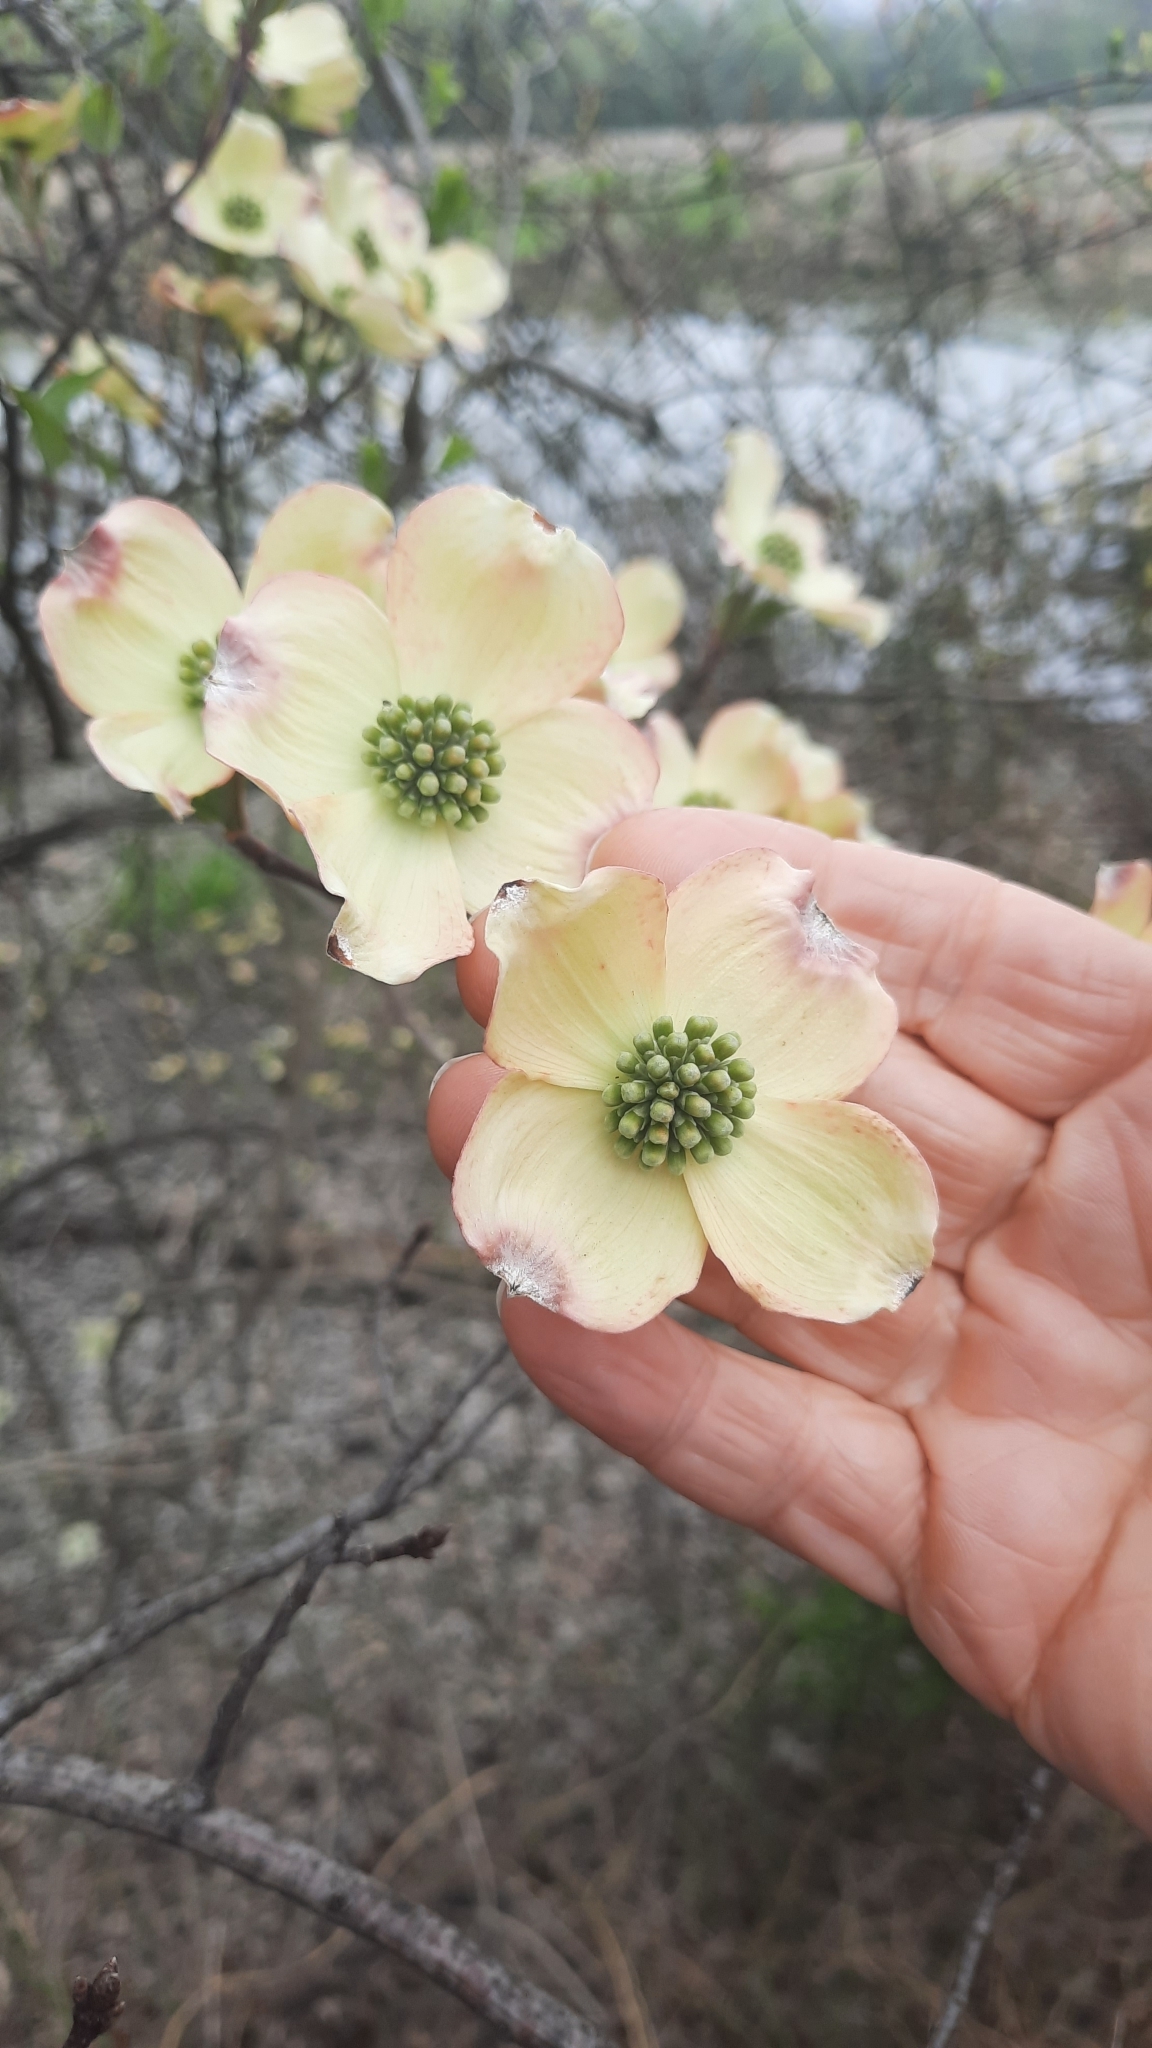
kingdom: Plantae
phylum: Tracheophyta
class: Magnoliopsida
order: Cornales
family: Cornaceae
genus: Cornus
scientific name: Cornus florida
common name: Flowering dogwood
